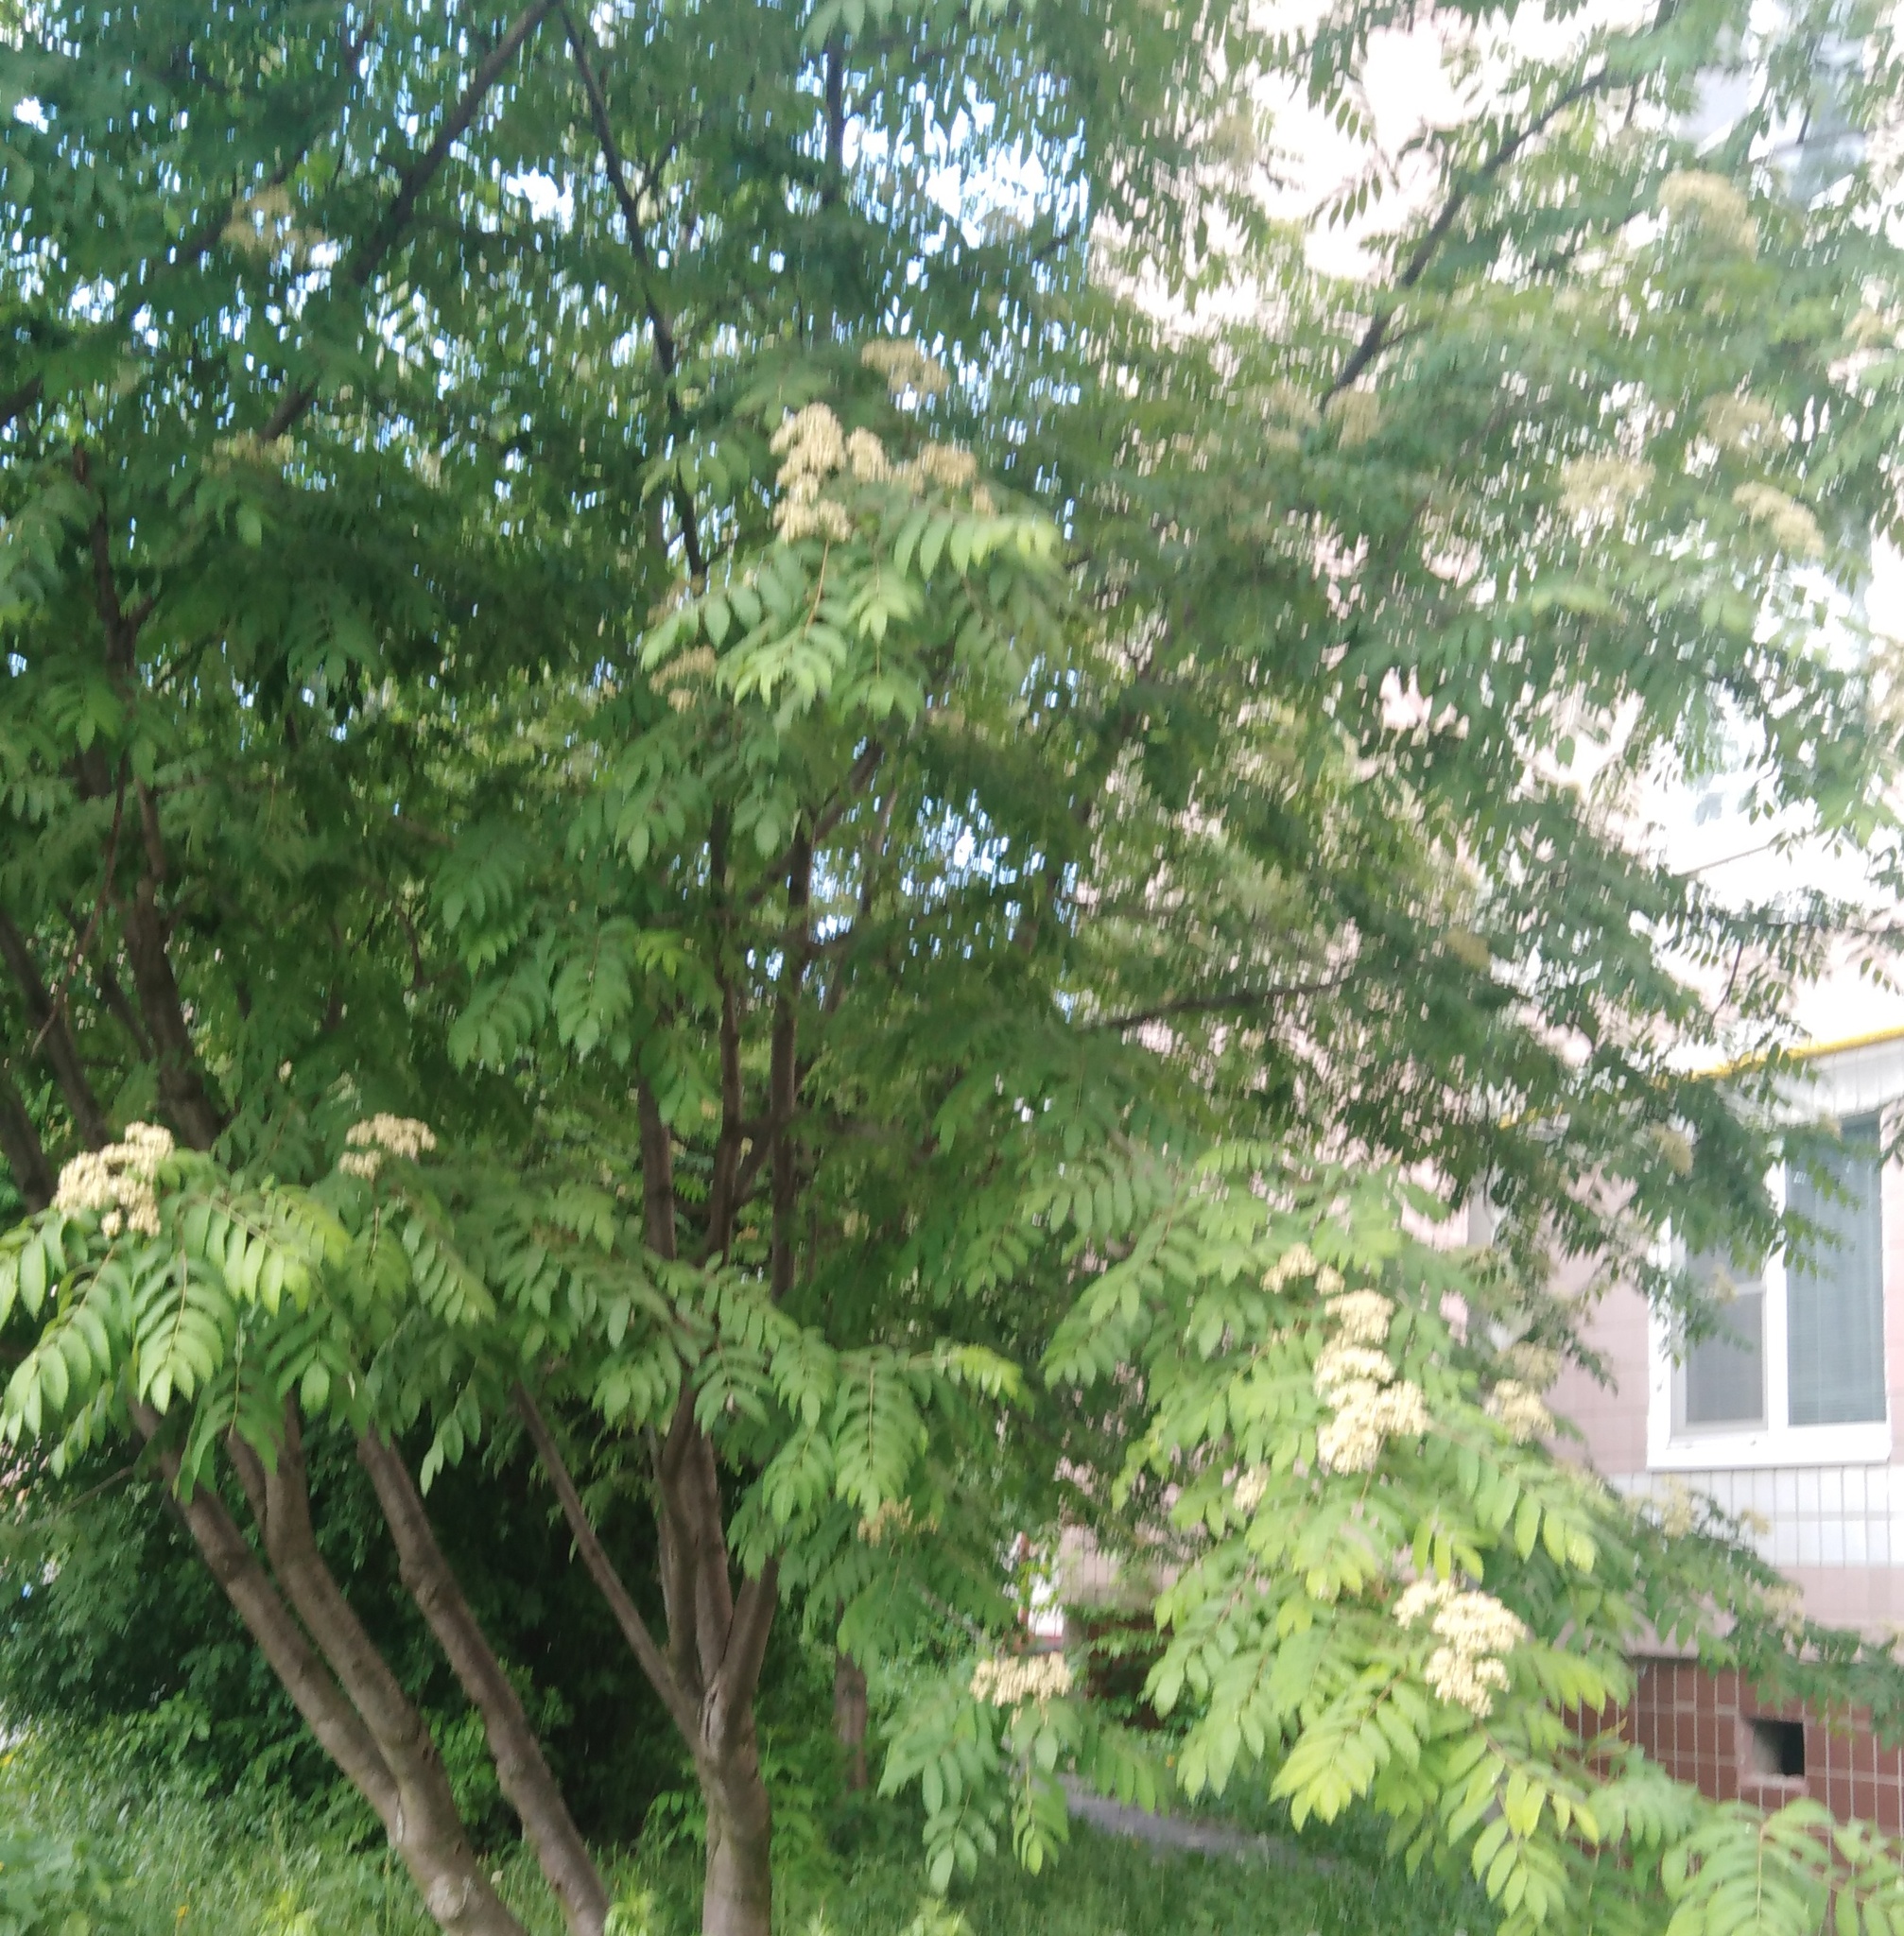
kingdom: Plantae
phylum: Tracheophyta
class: Magnoliopsida
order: Rosales
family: Rosaceae
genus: Sorbus
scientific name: Sorbus aucuparia
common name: Rowan
